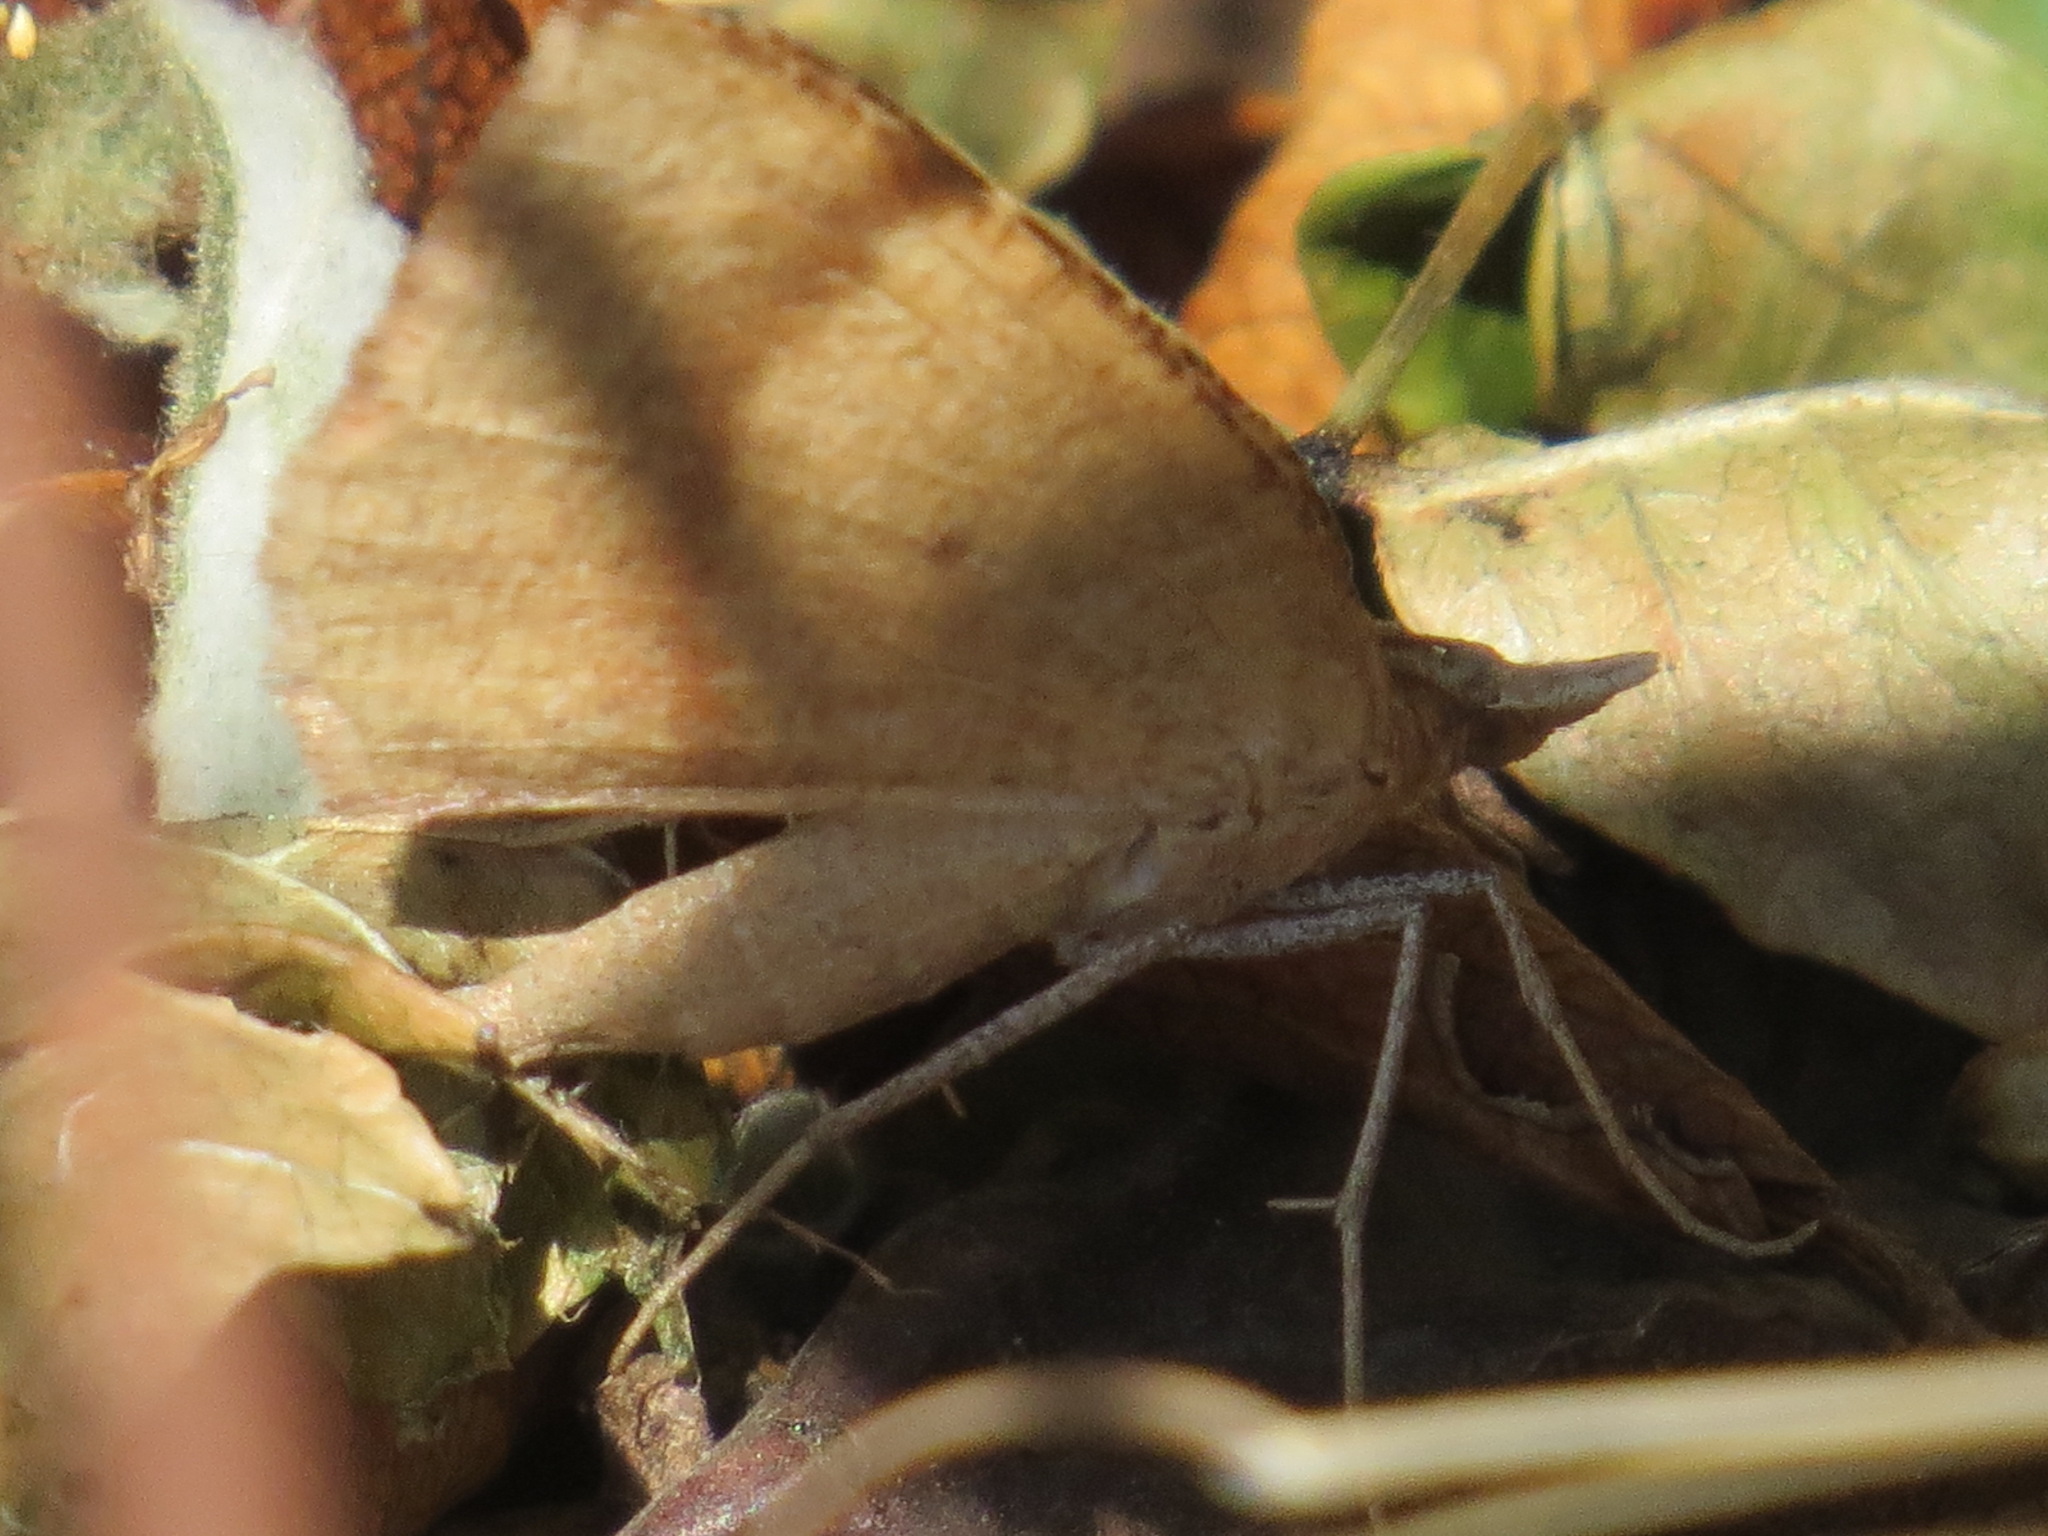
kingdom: Animalia
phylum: Arthropoda
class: Insecta
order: Lepidoptera
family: Geometridae
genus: Sericosema
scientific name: Sericosema juturnaria
